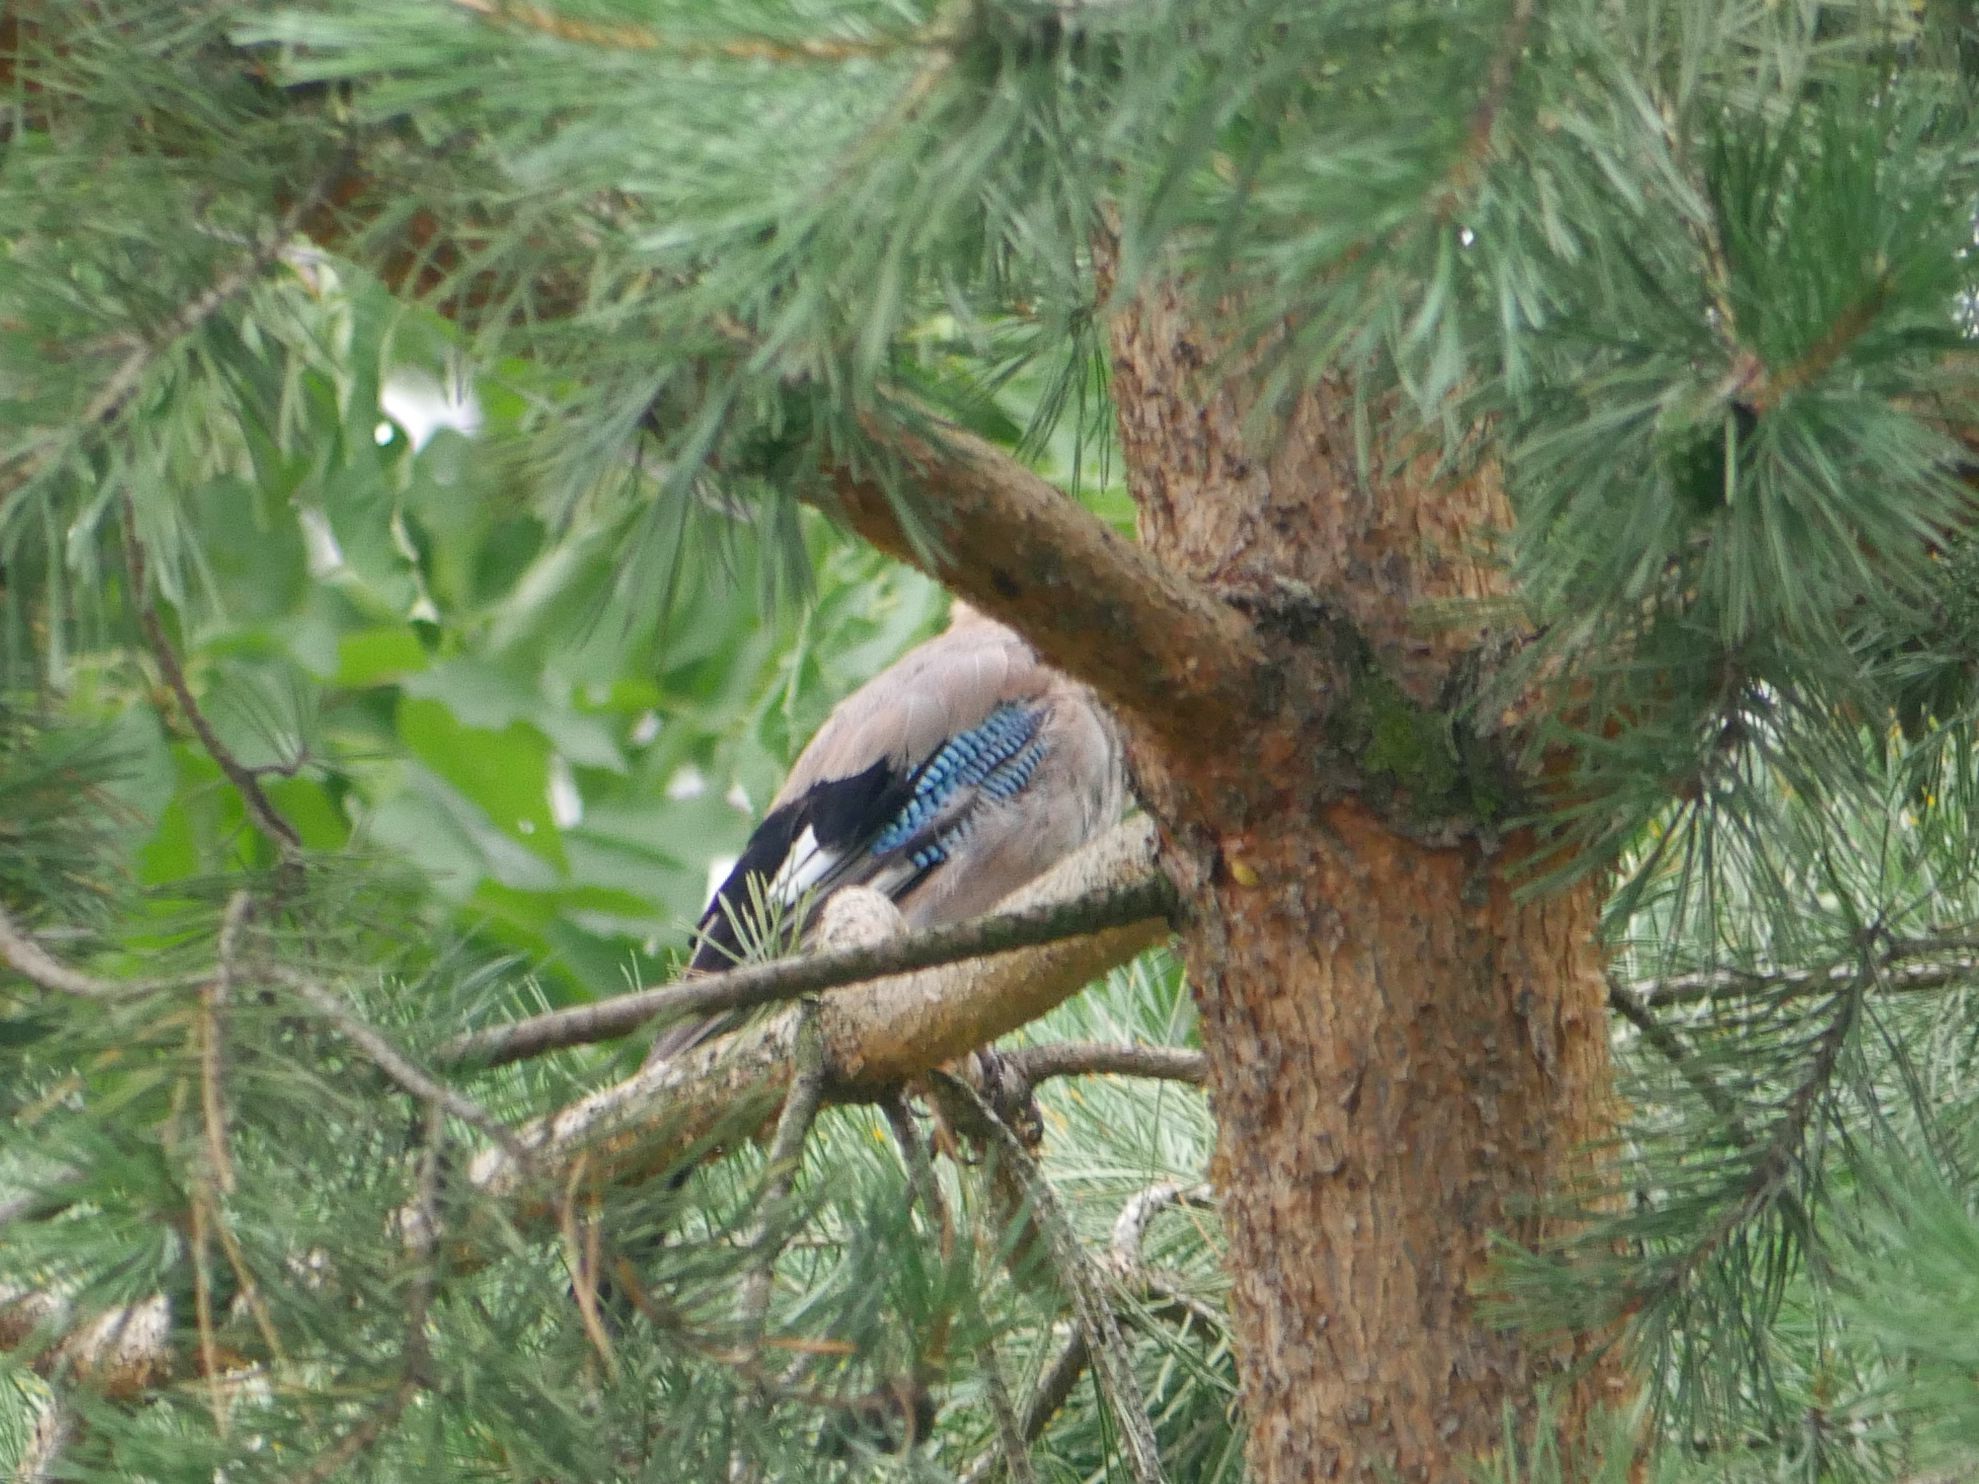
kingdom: Animalia
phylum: Chordata
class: Aves
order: Passeriformes
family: Corvidae
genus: Garrulus
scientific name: Garrulus glandarius
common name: Eurasian jay
